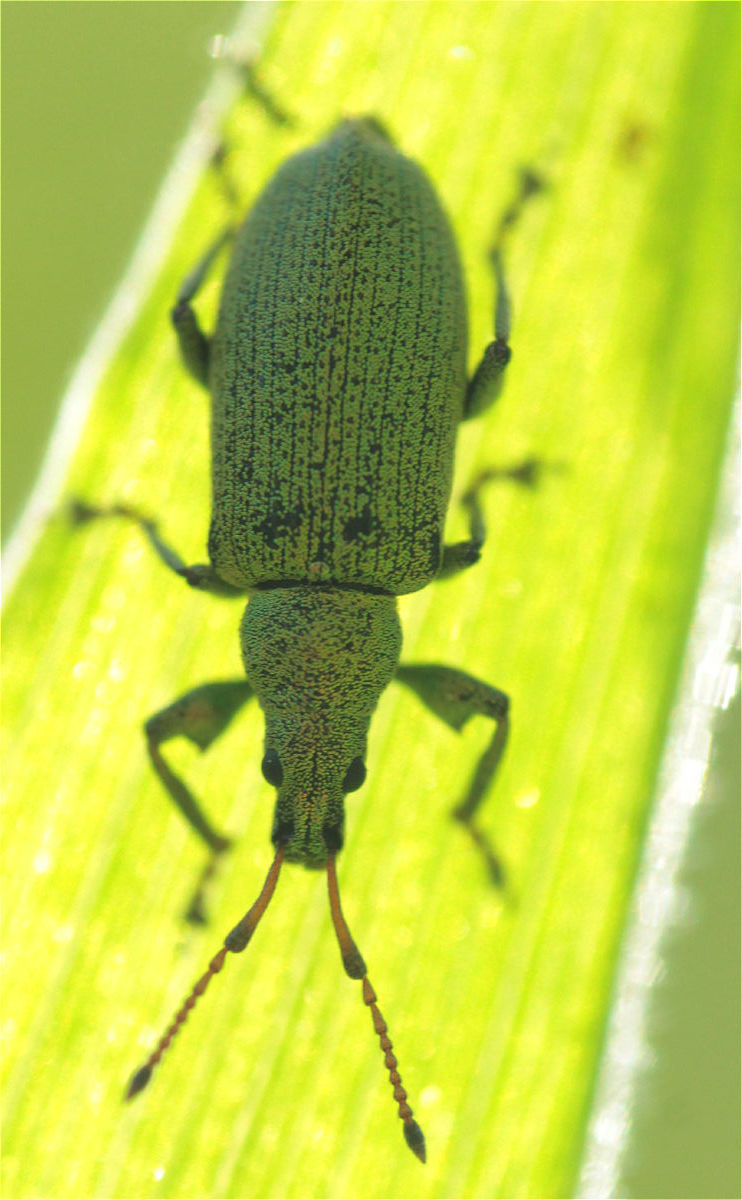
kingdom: Animalia
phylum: Arthropoda
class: Insecta
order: Coleoptera
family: Curculionidae
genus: Phyllobius
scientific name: Phyllobius maculicornis
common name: Green leaf weevil
